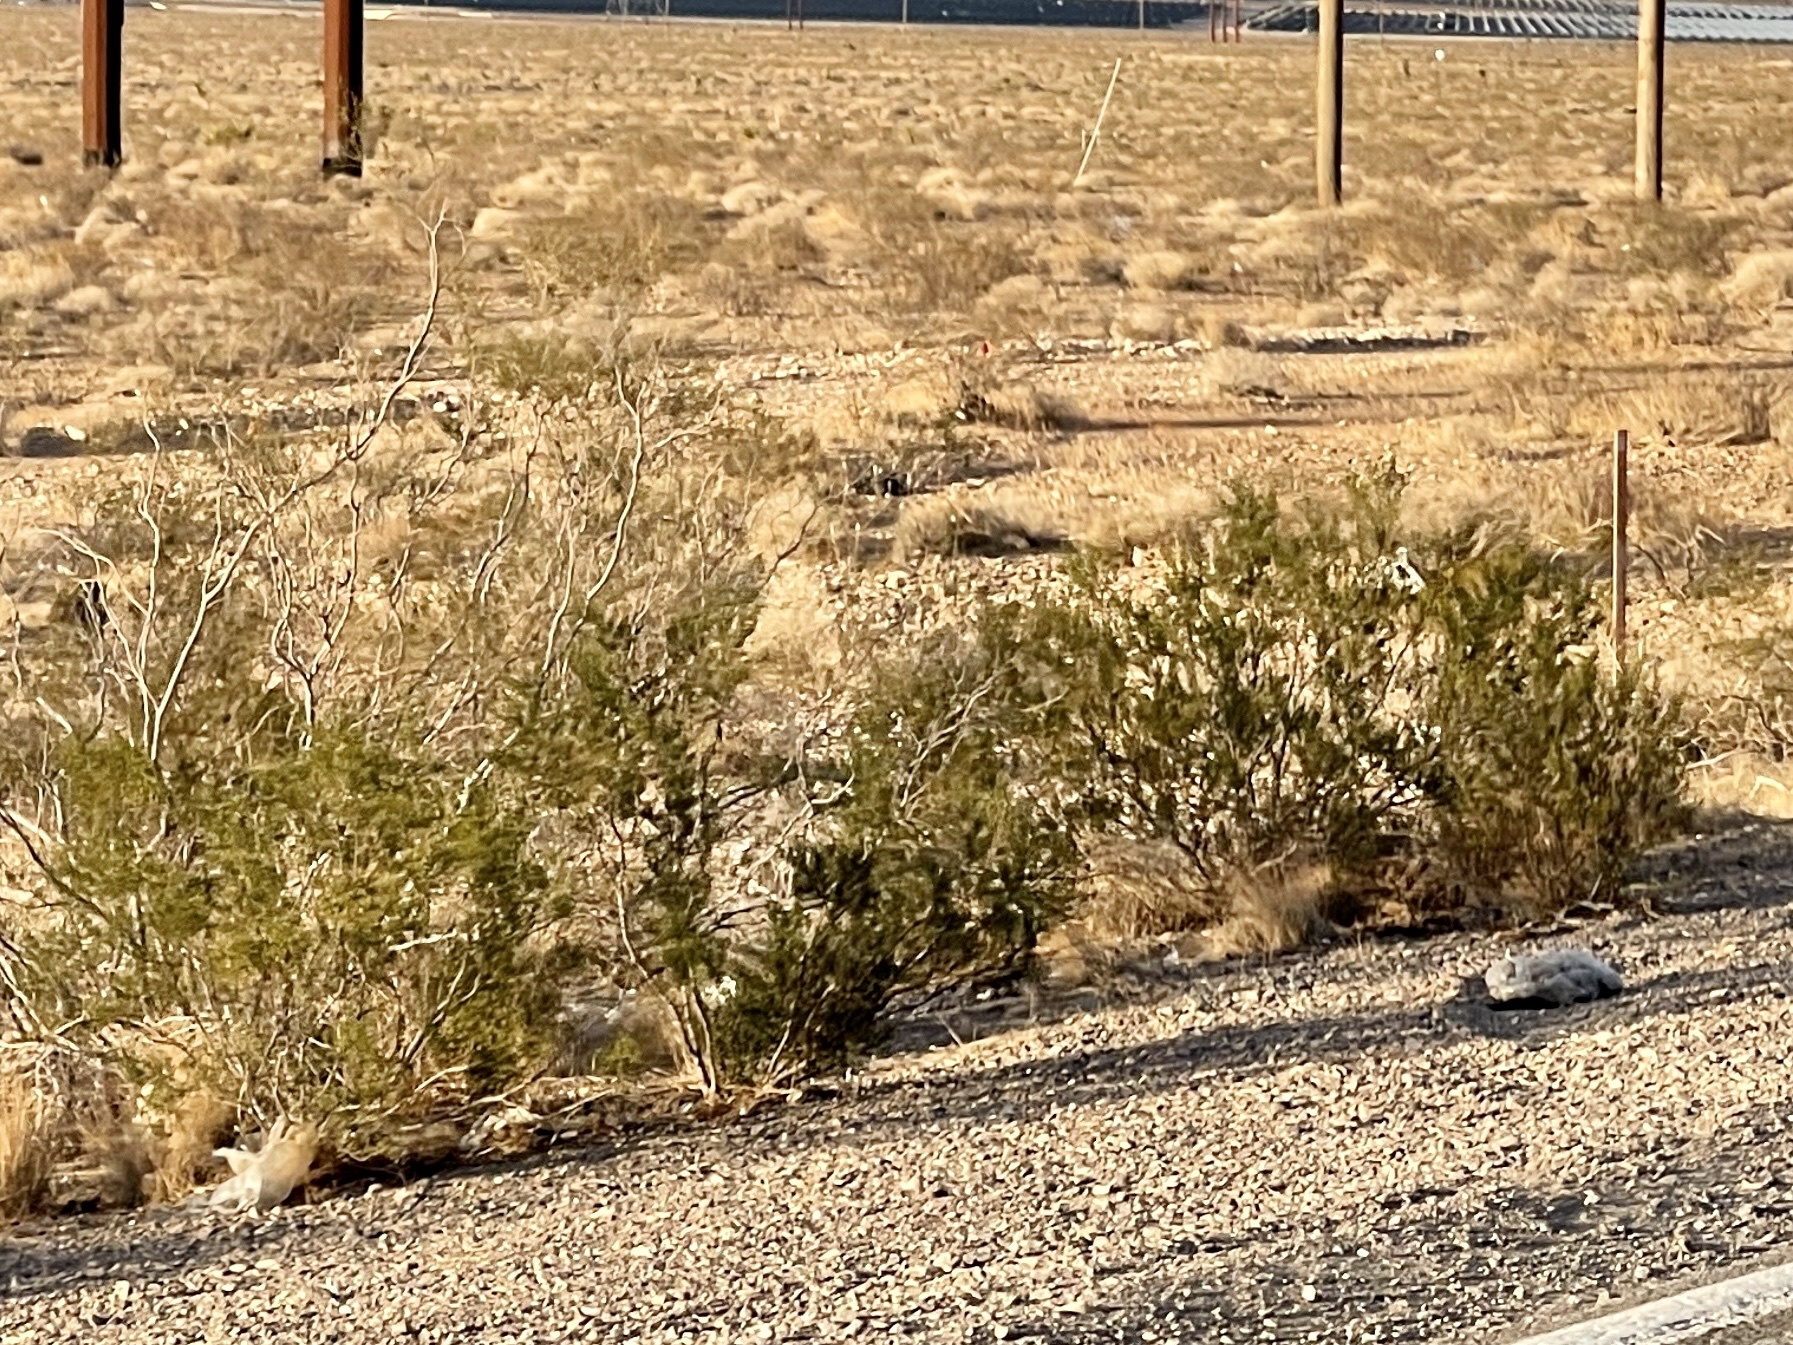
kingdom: Plantae
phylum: Tracheophyta
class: Magnoliopsida
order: Zygophyllales
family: Zygophyllaceae
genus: Larrea
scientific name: Larrea tridentata
